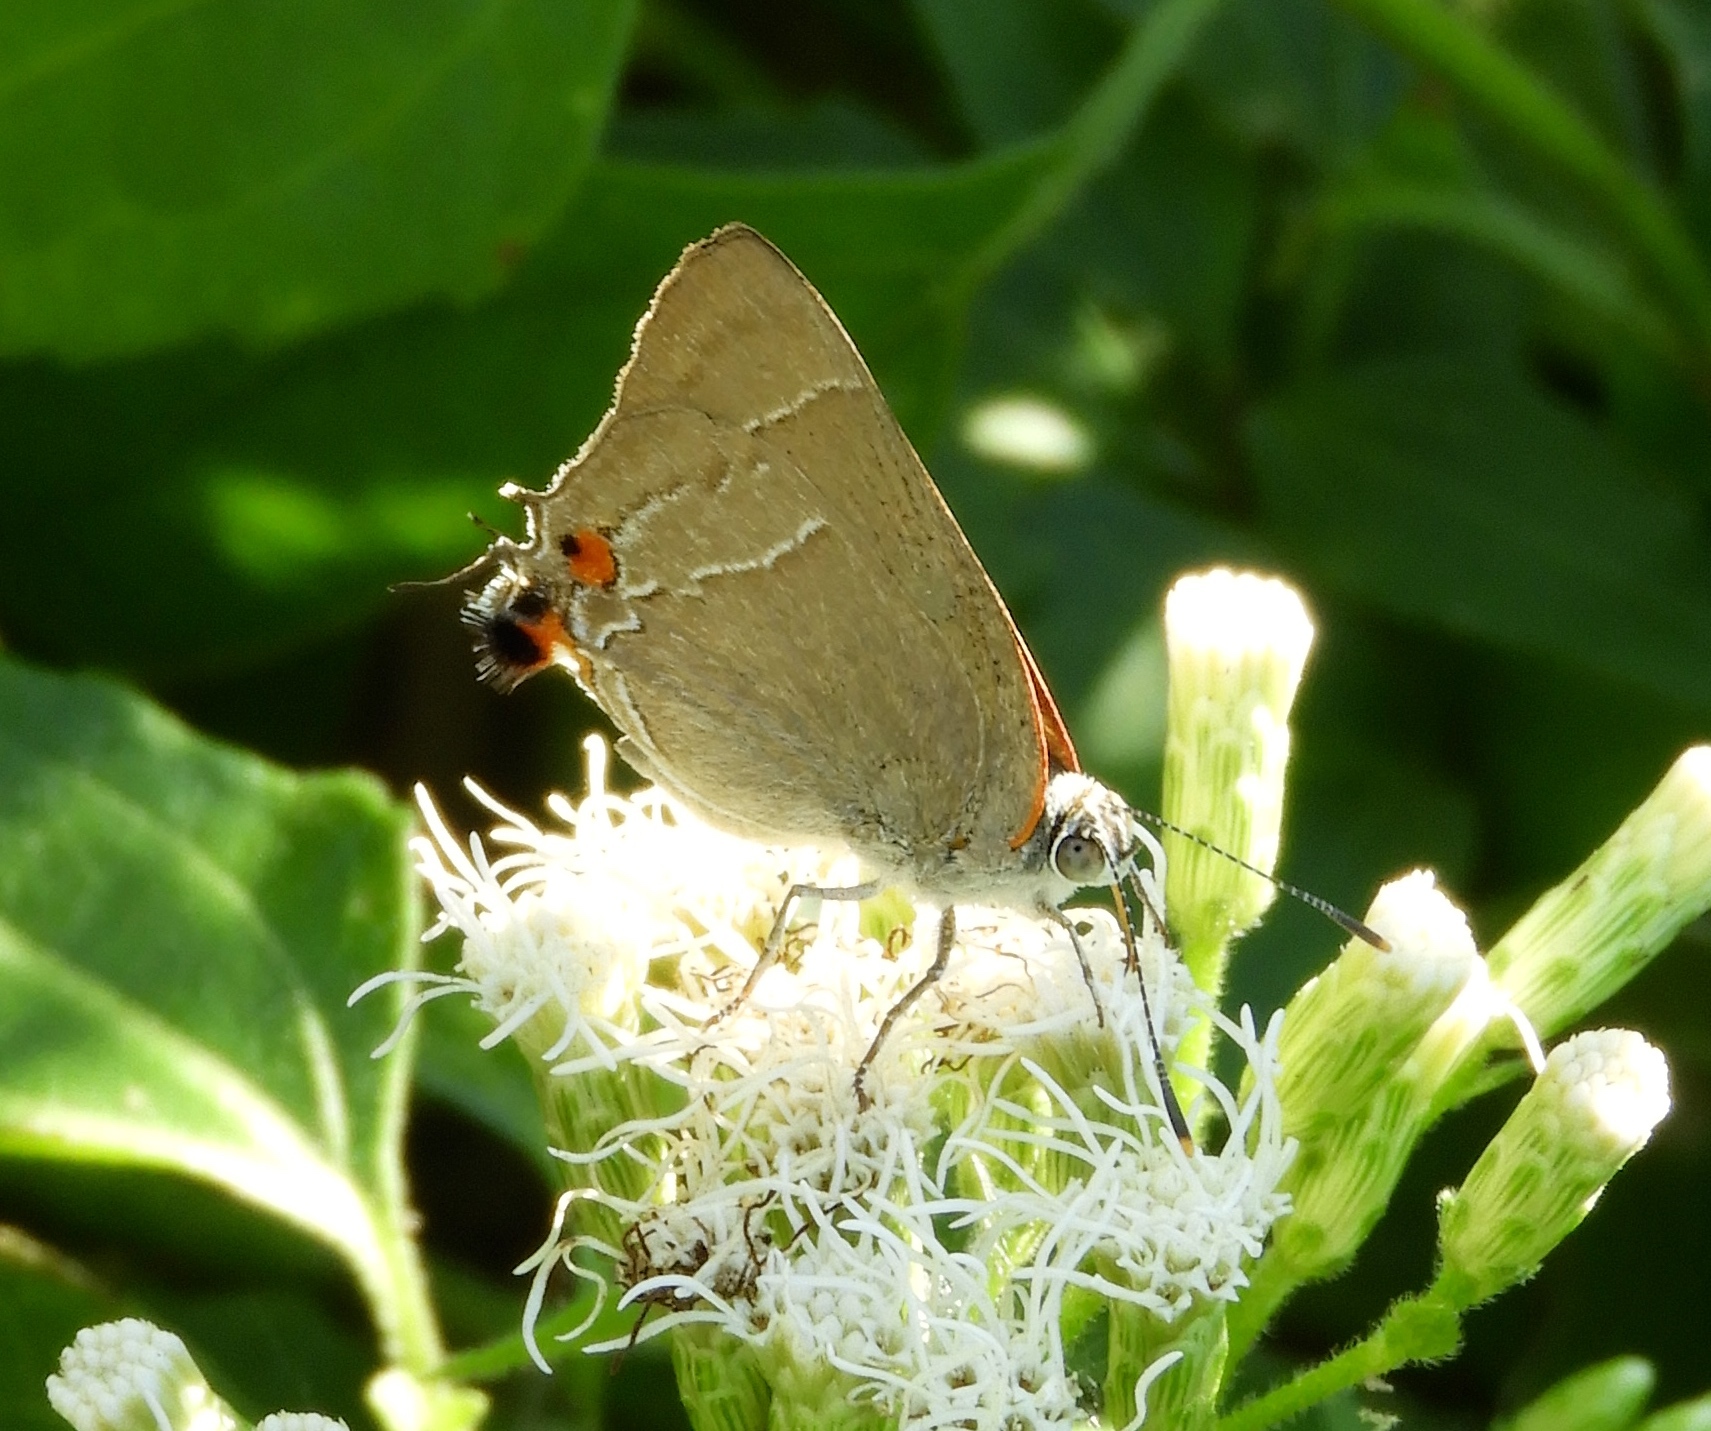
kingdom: Animalia
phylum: Arthropoda
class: Insecta
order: Lepidoptera
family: Lycaenidae
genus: Rekoa
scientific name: Rekoa
